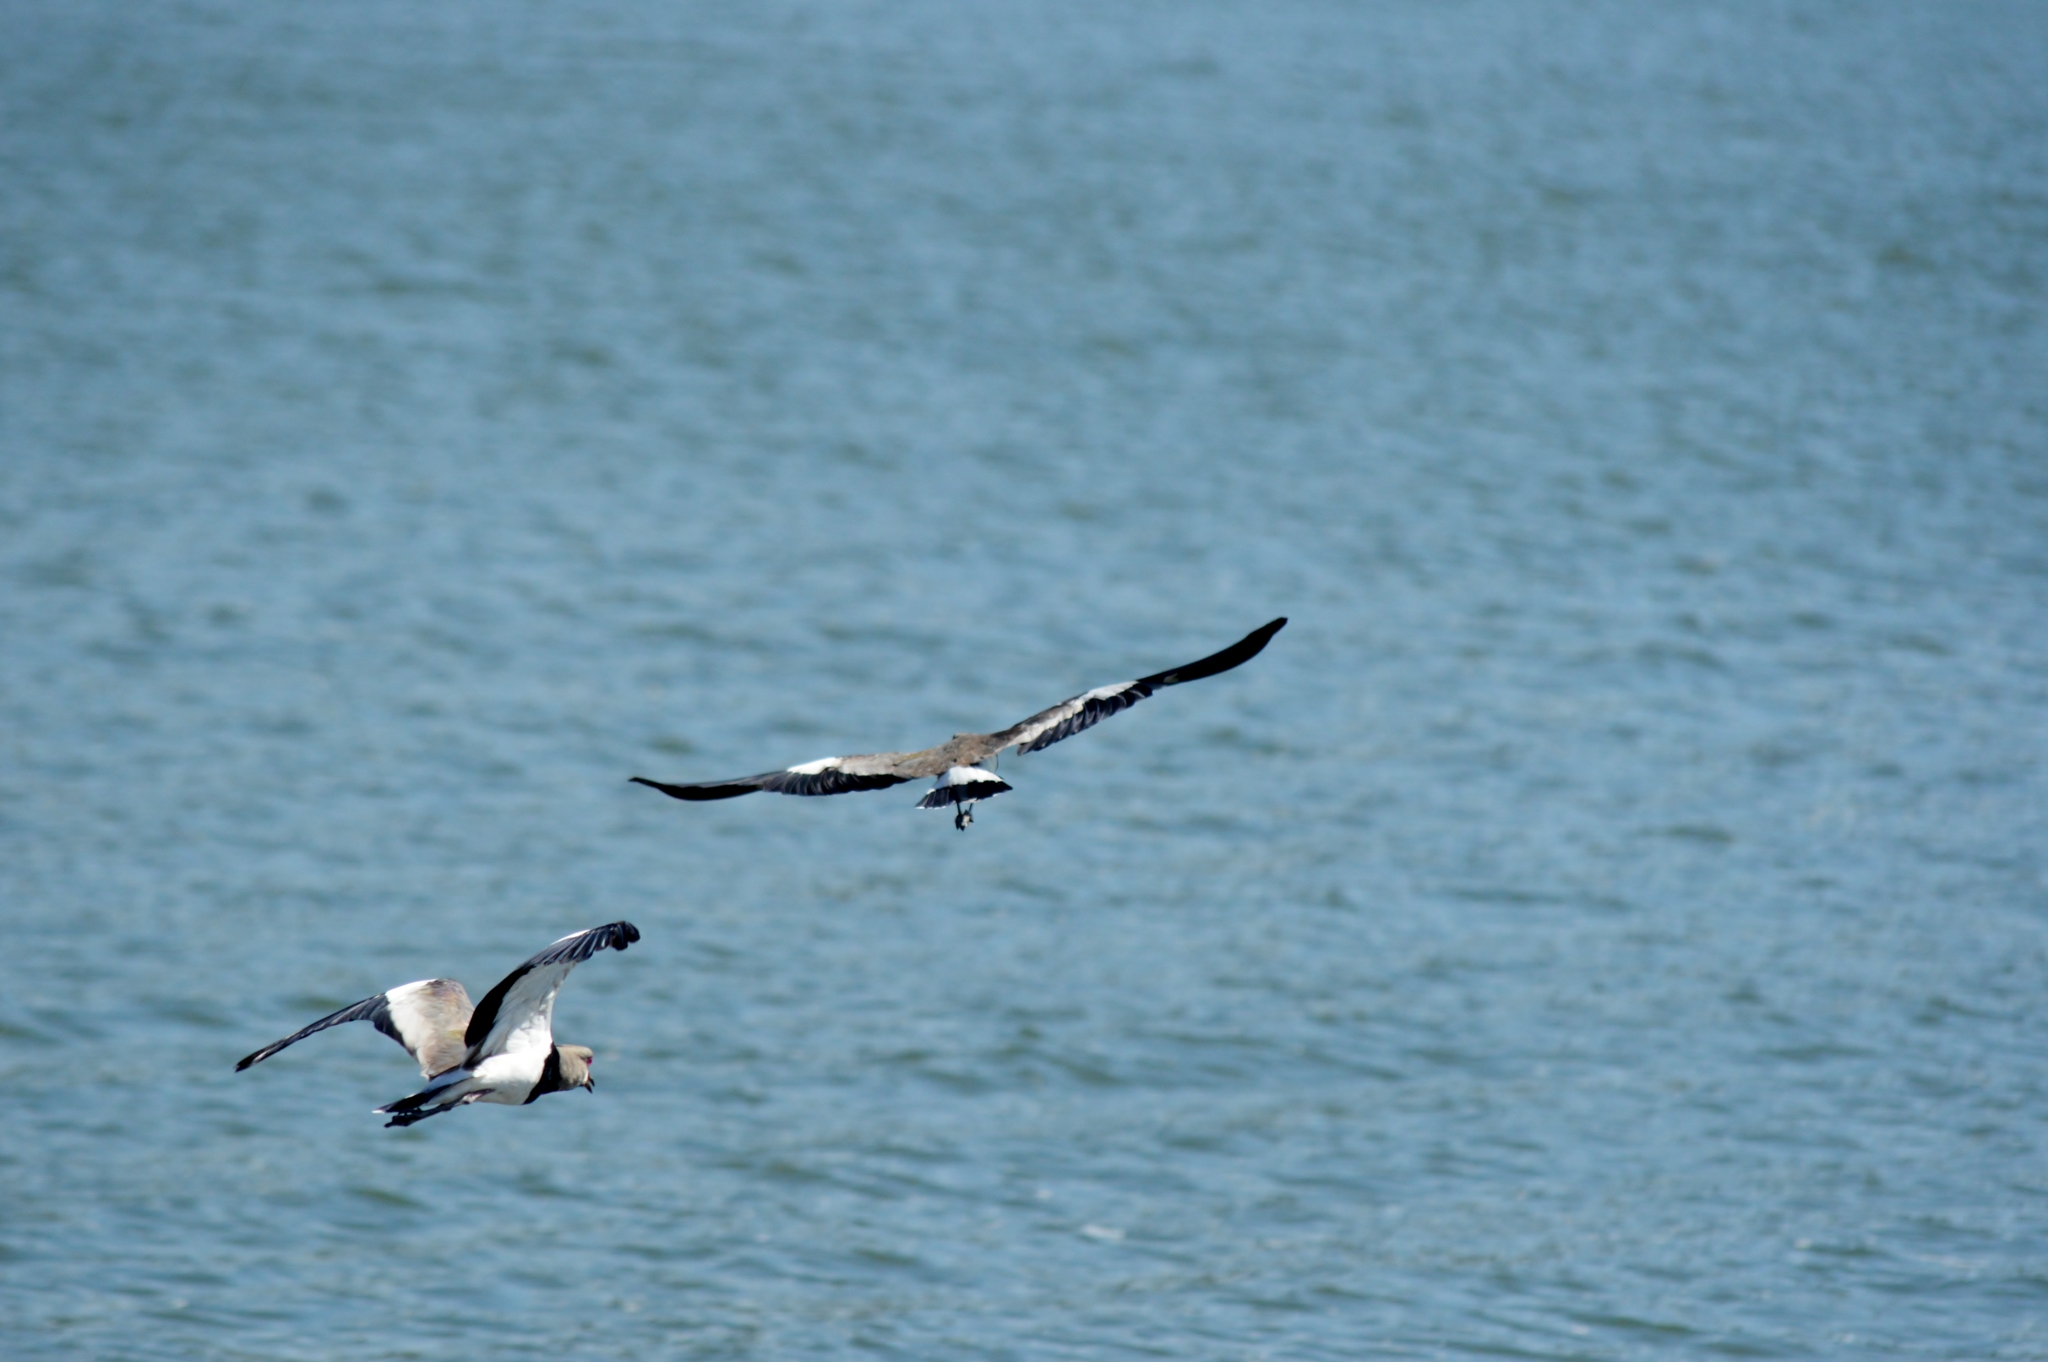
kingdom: Animalia
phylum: Chordata
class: Aves
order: Charadriiformes
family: Charadriidae
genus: Vanellus
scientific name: Vanellus chilensis
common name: Southern lapwing
